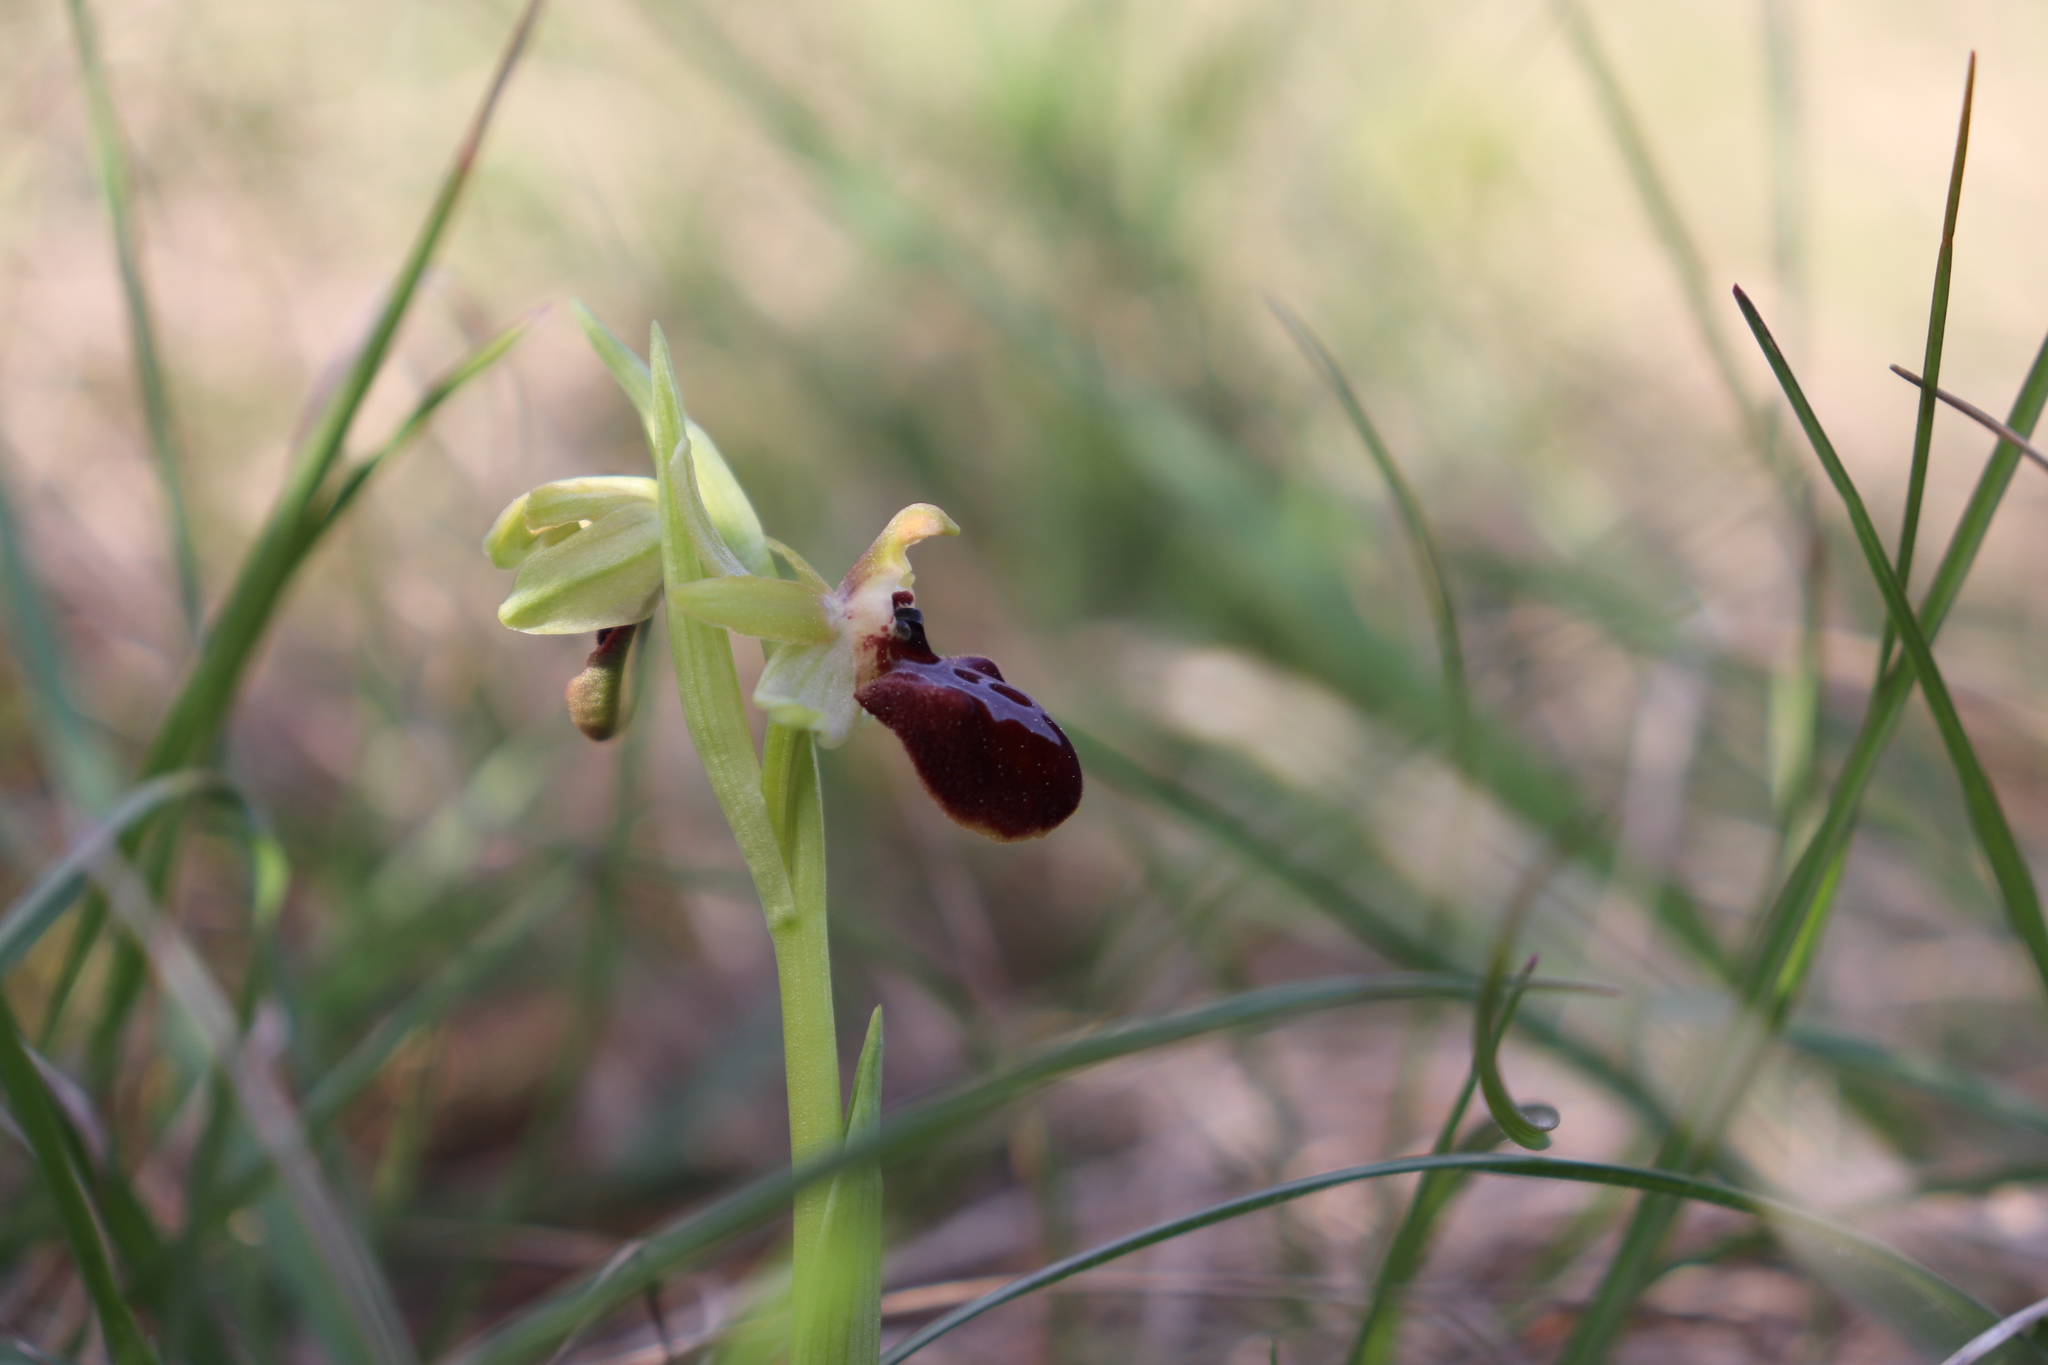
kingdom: Plantae
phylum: Tracheophyta
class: Liliopsida
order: Asparagales
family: Orchidaceae
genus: Ophrys
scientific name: Ophrys arachnitiformis
